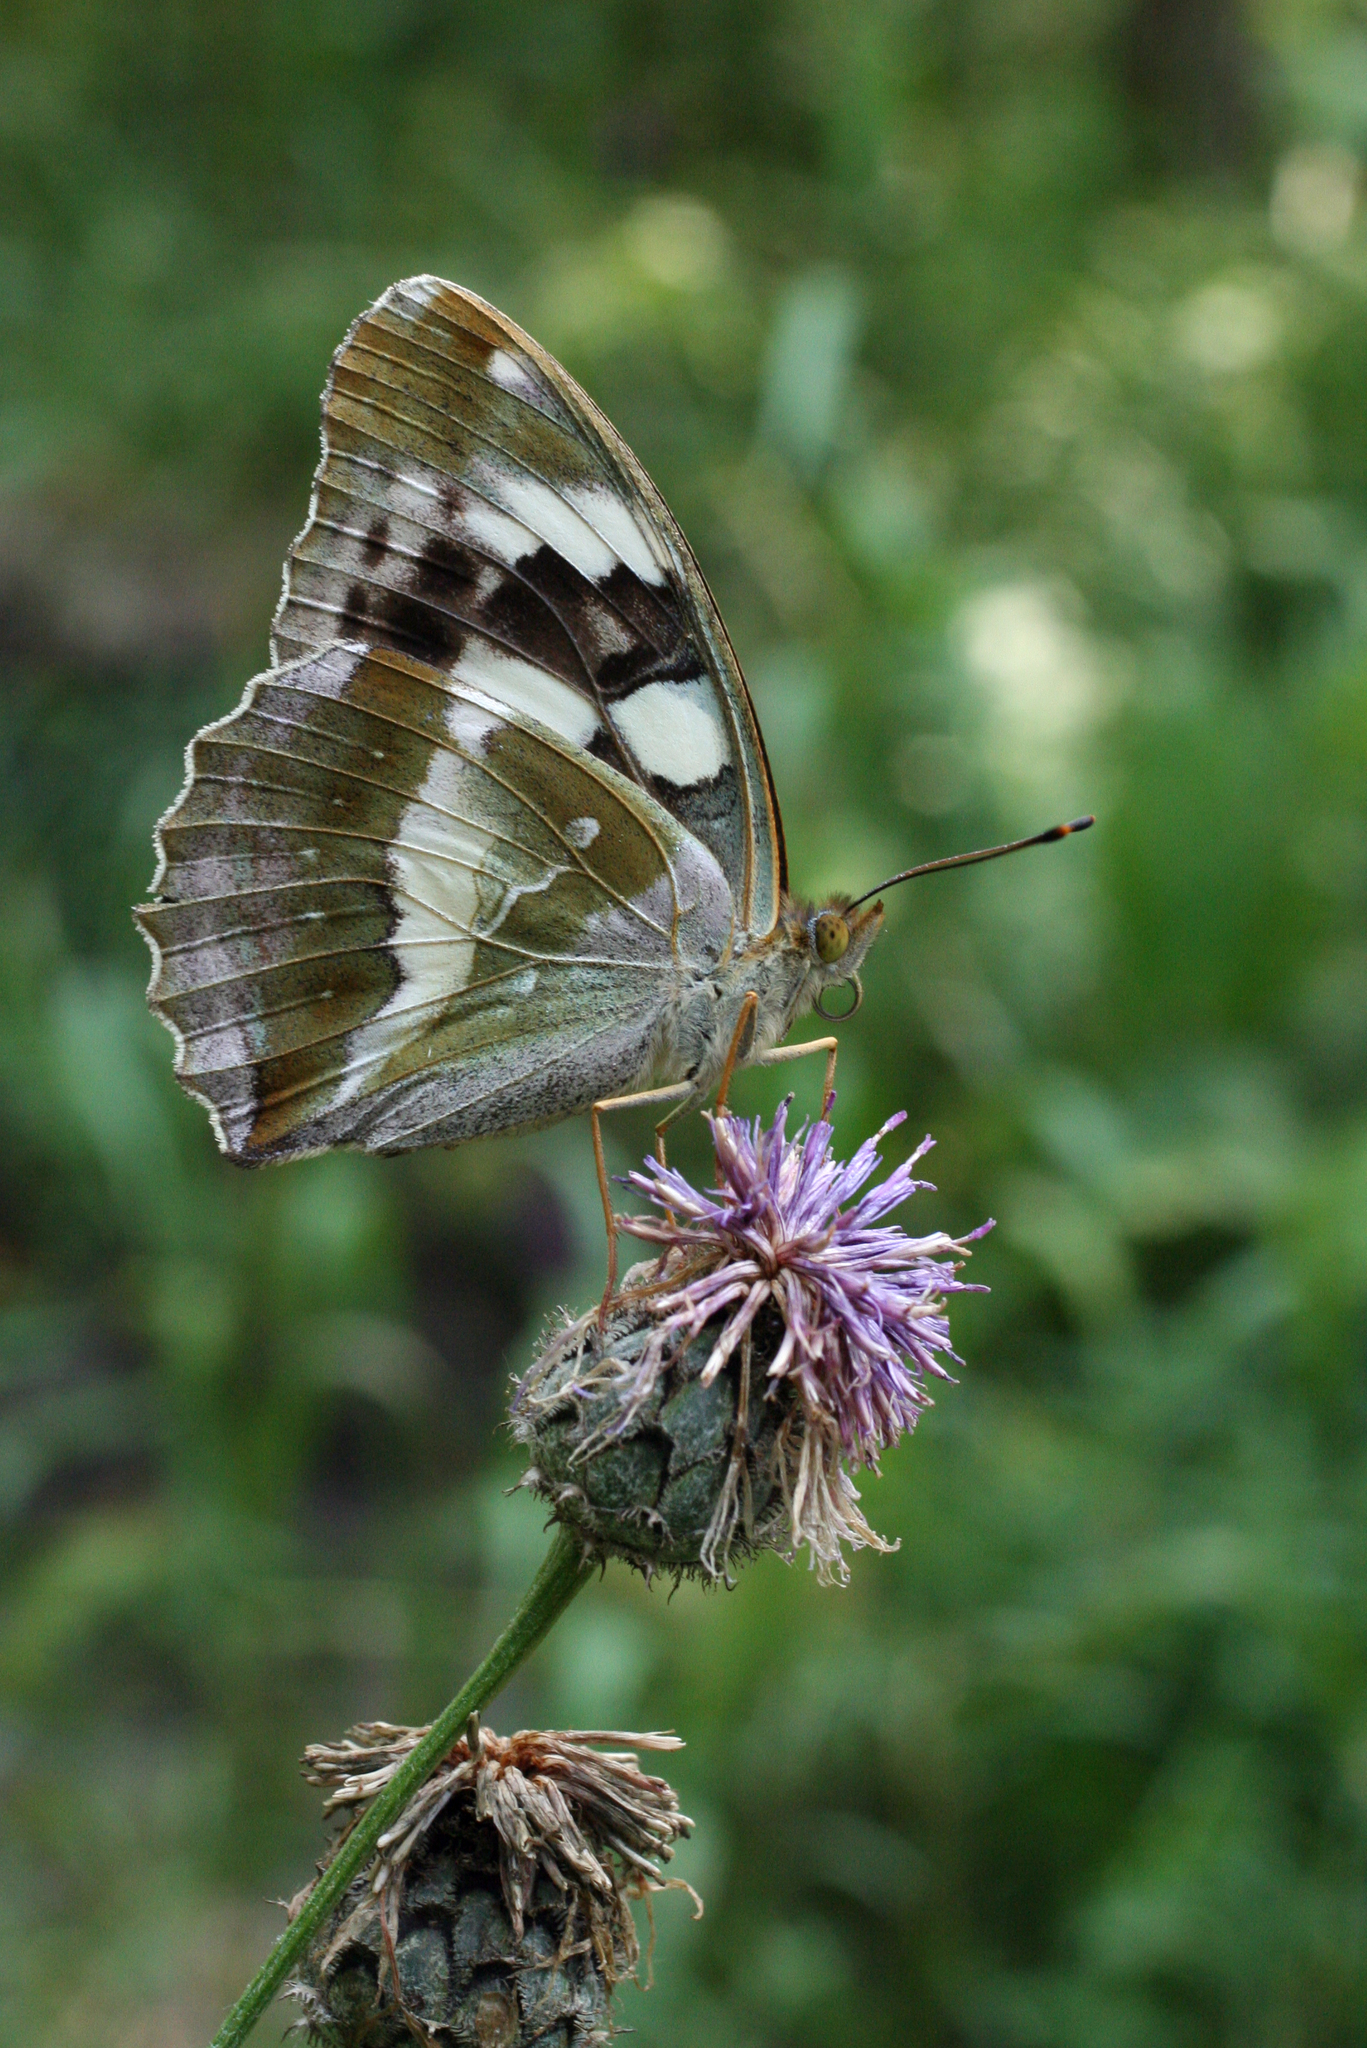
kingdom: Animalia
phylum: Arthropoda
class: Insecta
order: Lepidoptera
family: Nymphalidae
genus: Damora
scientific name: Damora sagana
